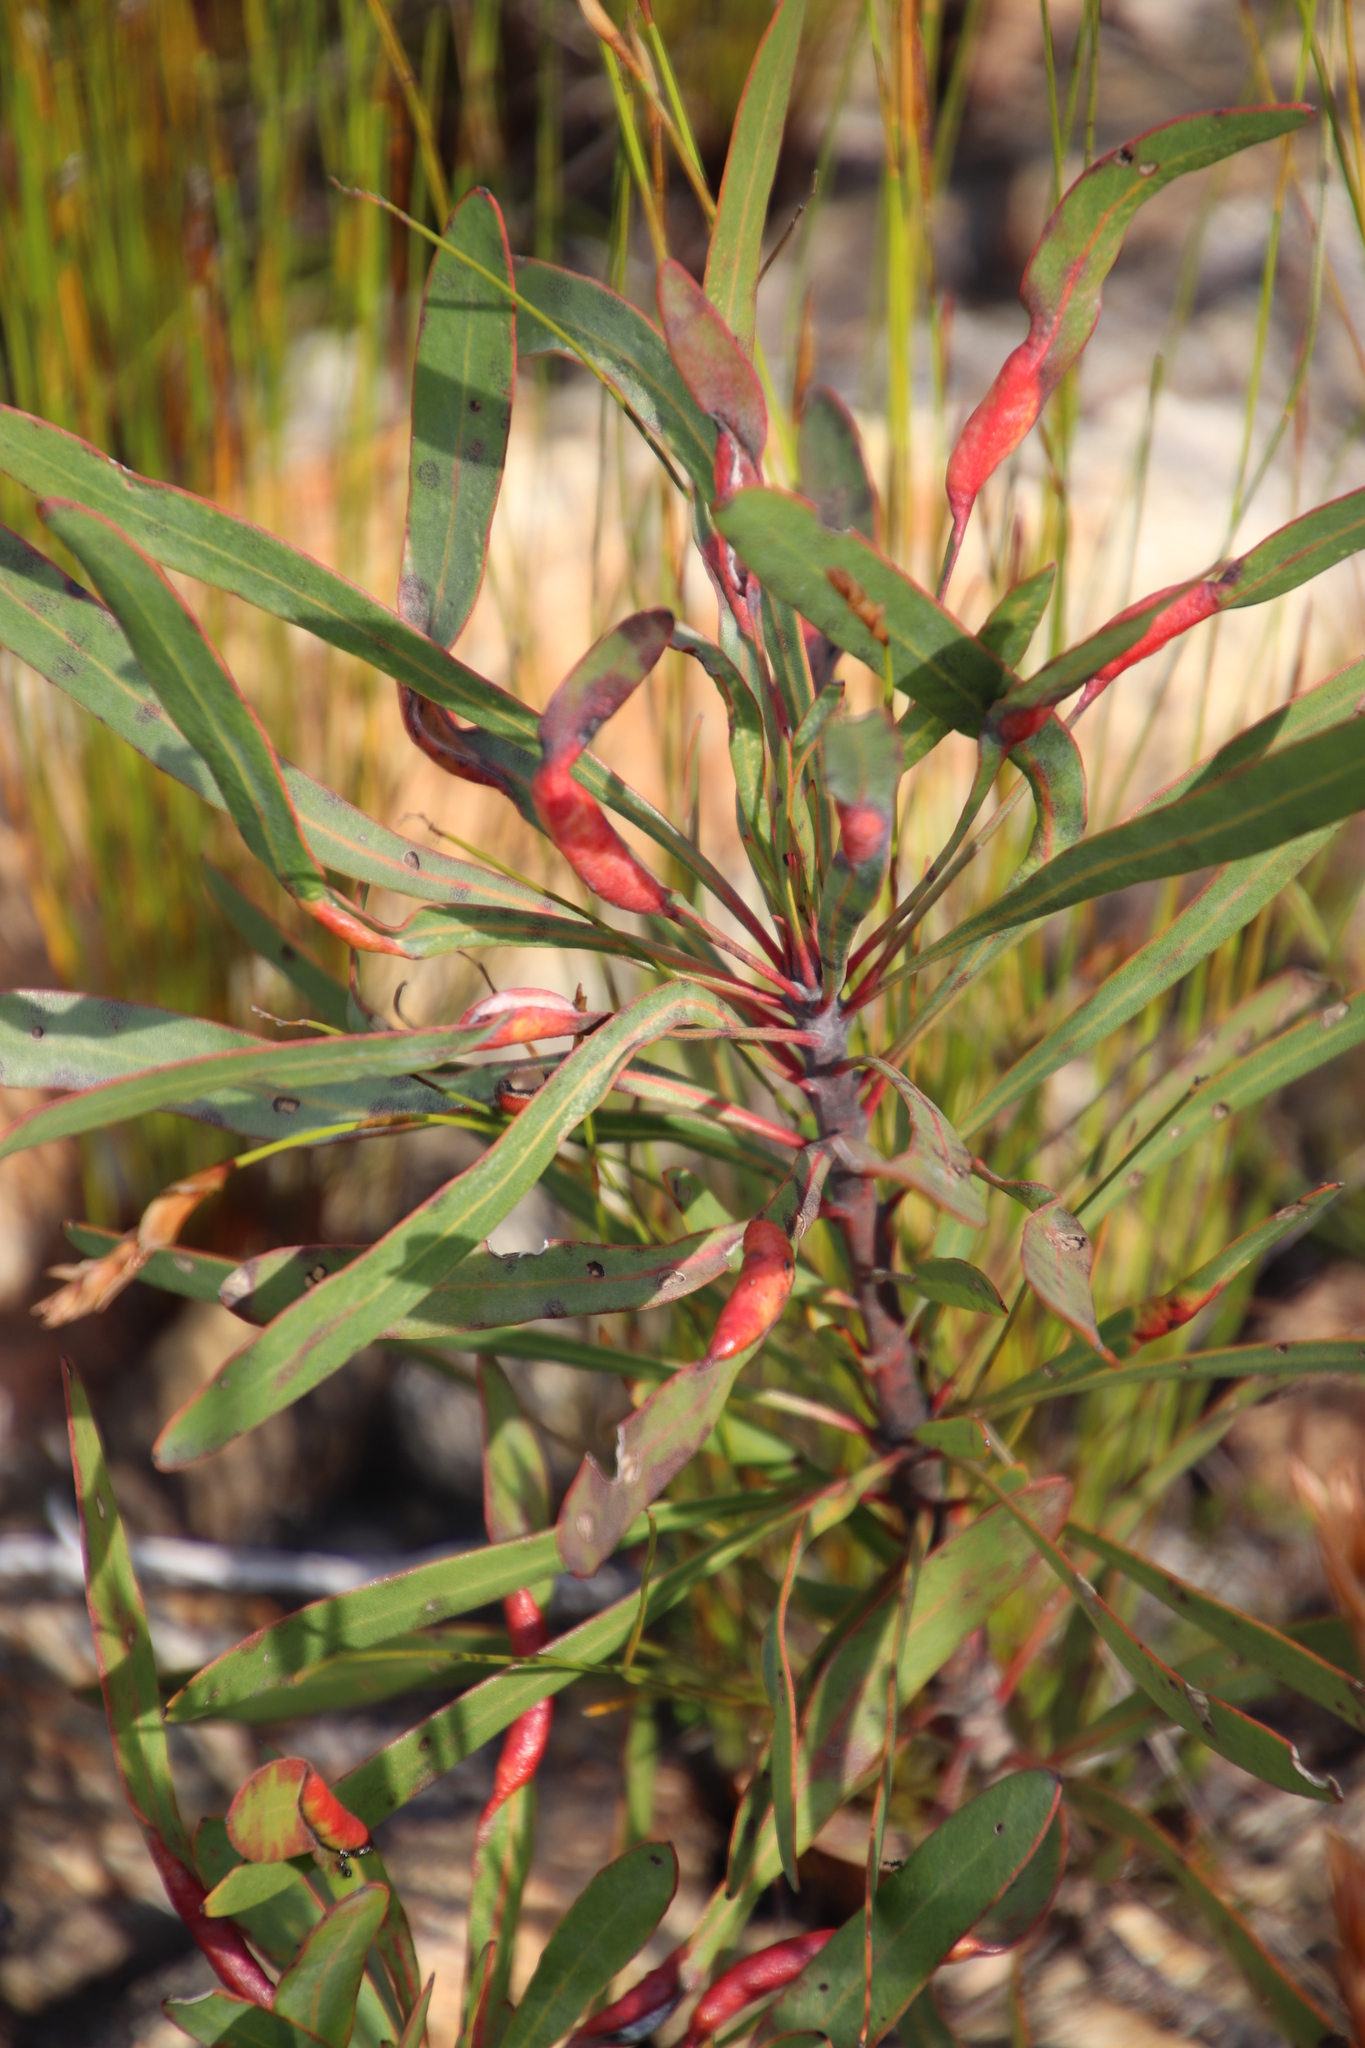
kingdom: Plantae
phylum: Tracheophyta
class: Magnoliopsida
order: Proteales
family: Proteaceae
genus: Protea
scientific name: Protea longifolia
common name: Long-leaf sugarbush
